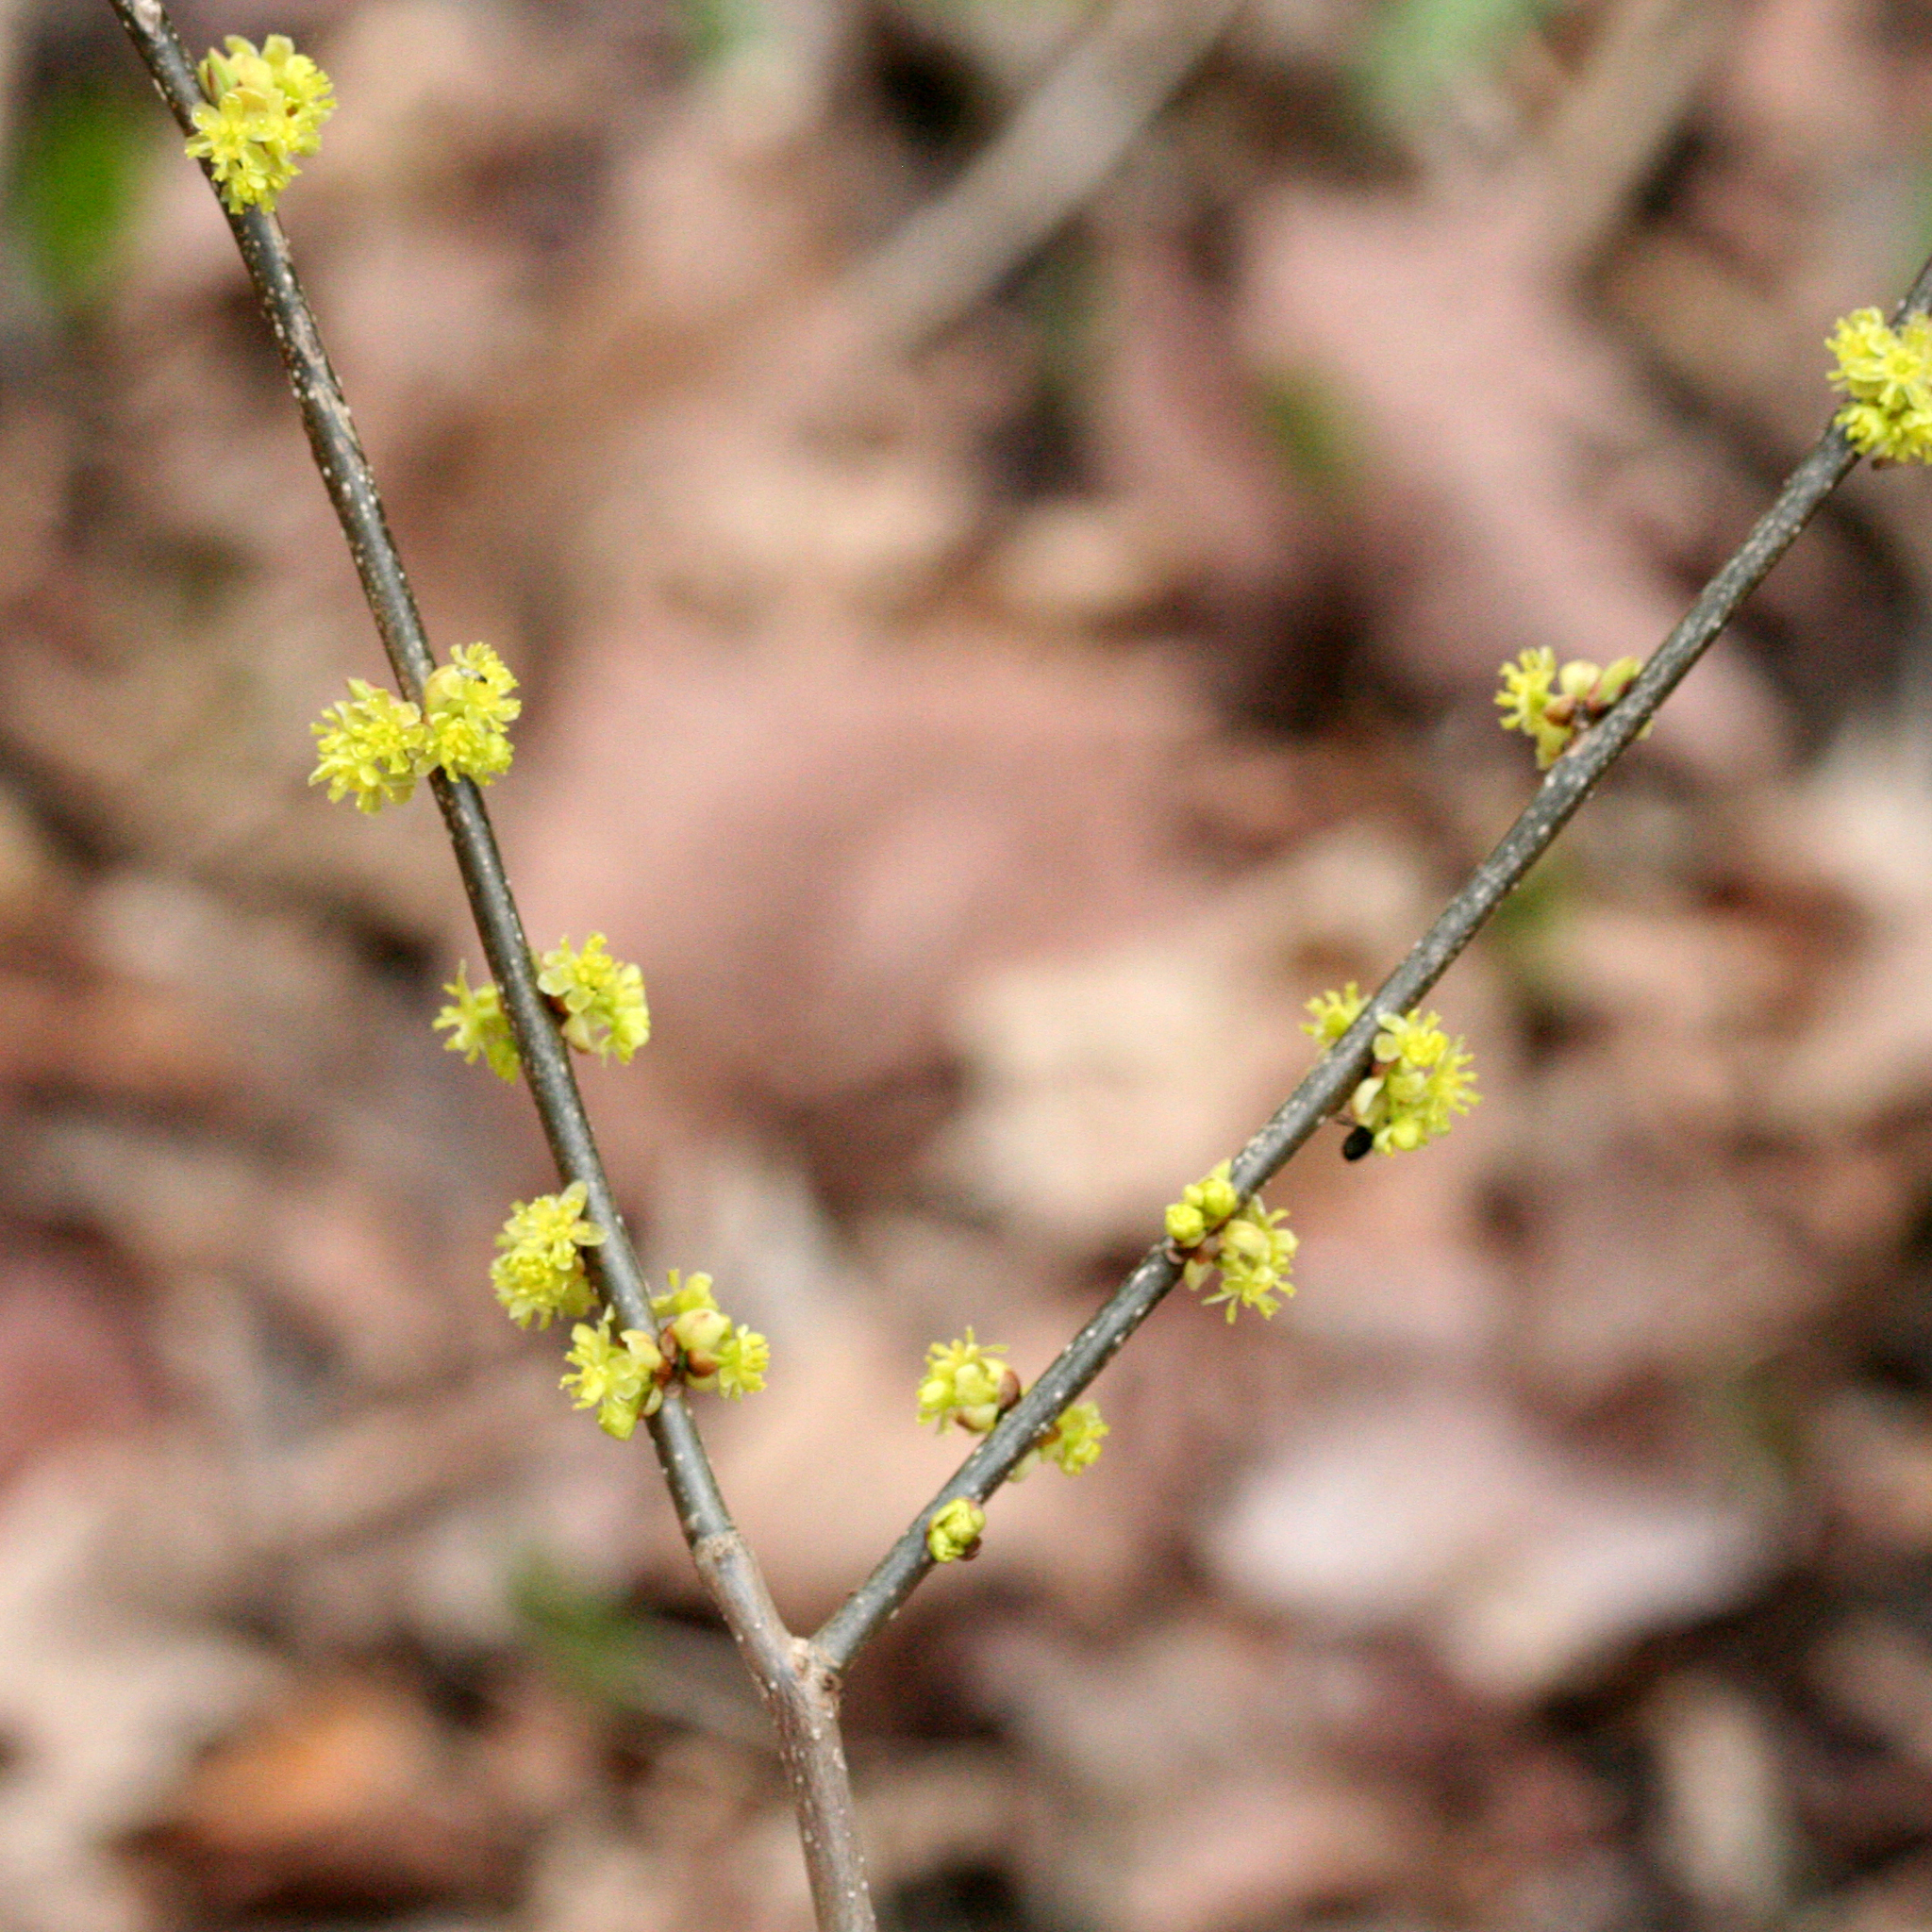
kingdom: Plantae
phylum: Tracheophyta
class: Magnoliopsida
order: Laurales
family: Lauraceae
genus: Lindera
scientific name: Lindera benzoin
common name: Spicebush
